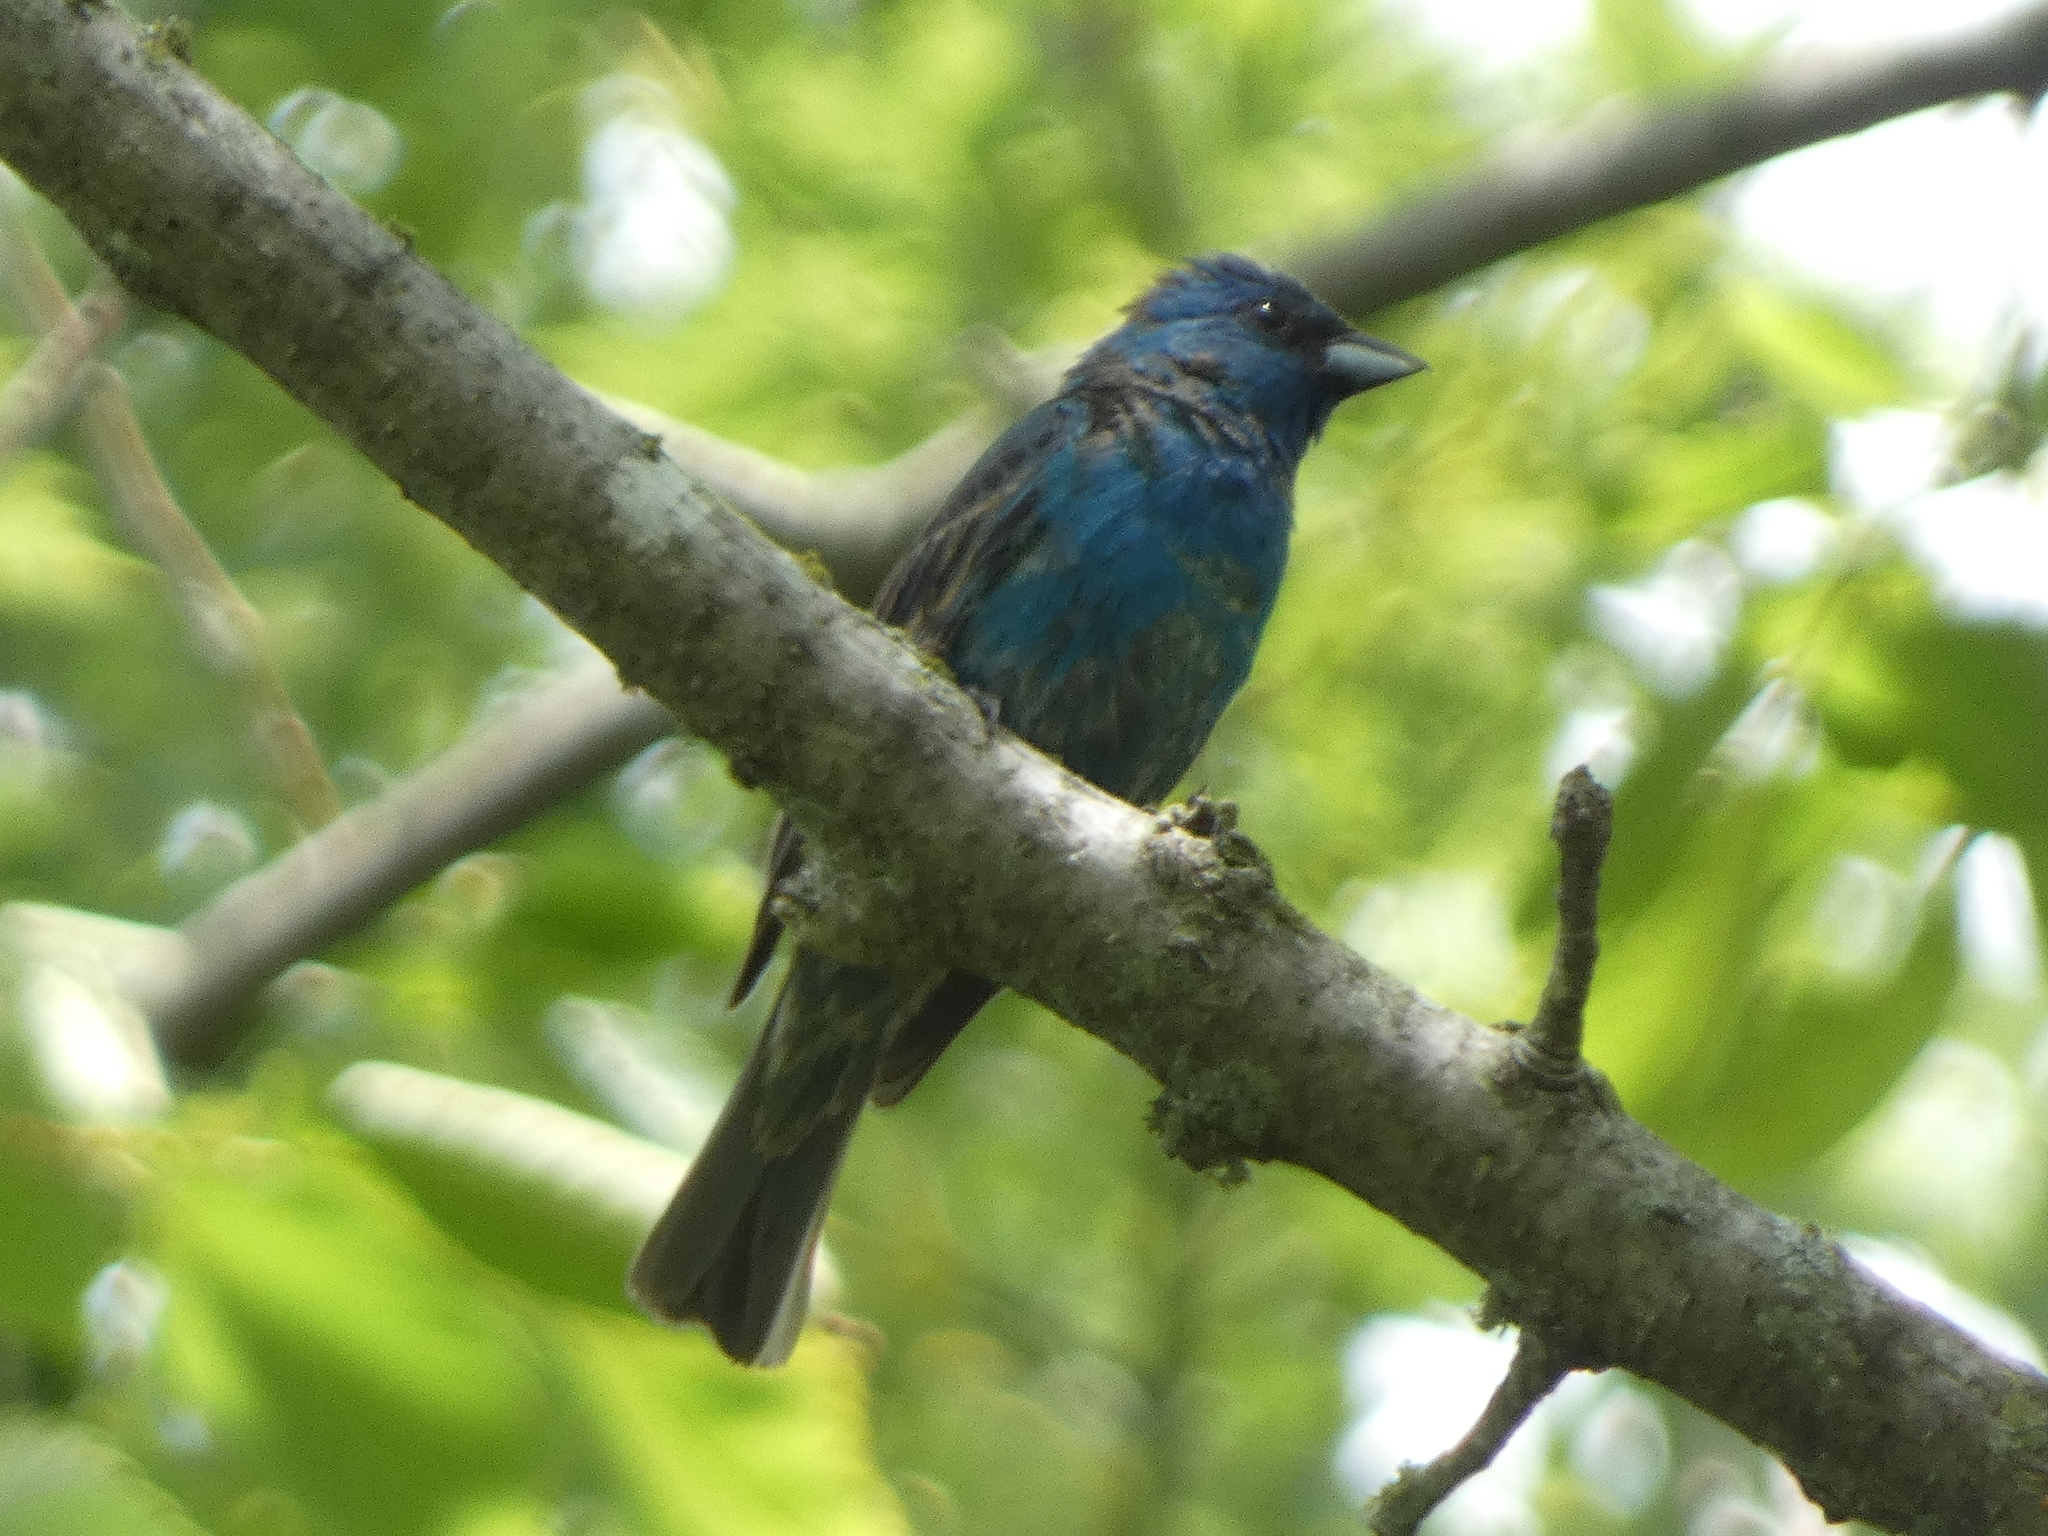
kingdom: Animalia
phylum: Chordata
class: Aves
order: Passeriformes
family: Cardinalidae
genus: Passerina
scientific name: Passerina cyanea
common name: Indigo bunting
